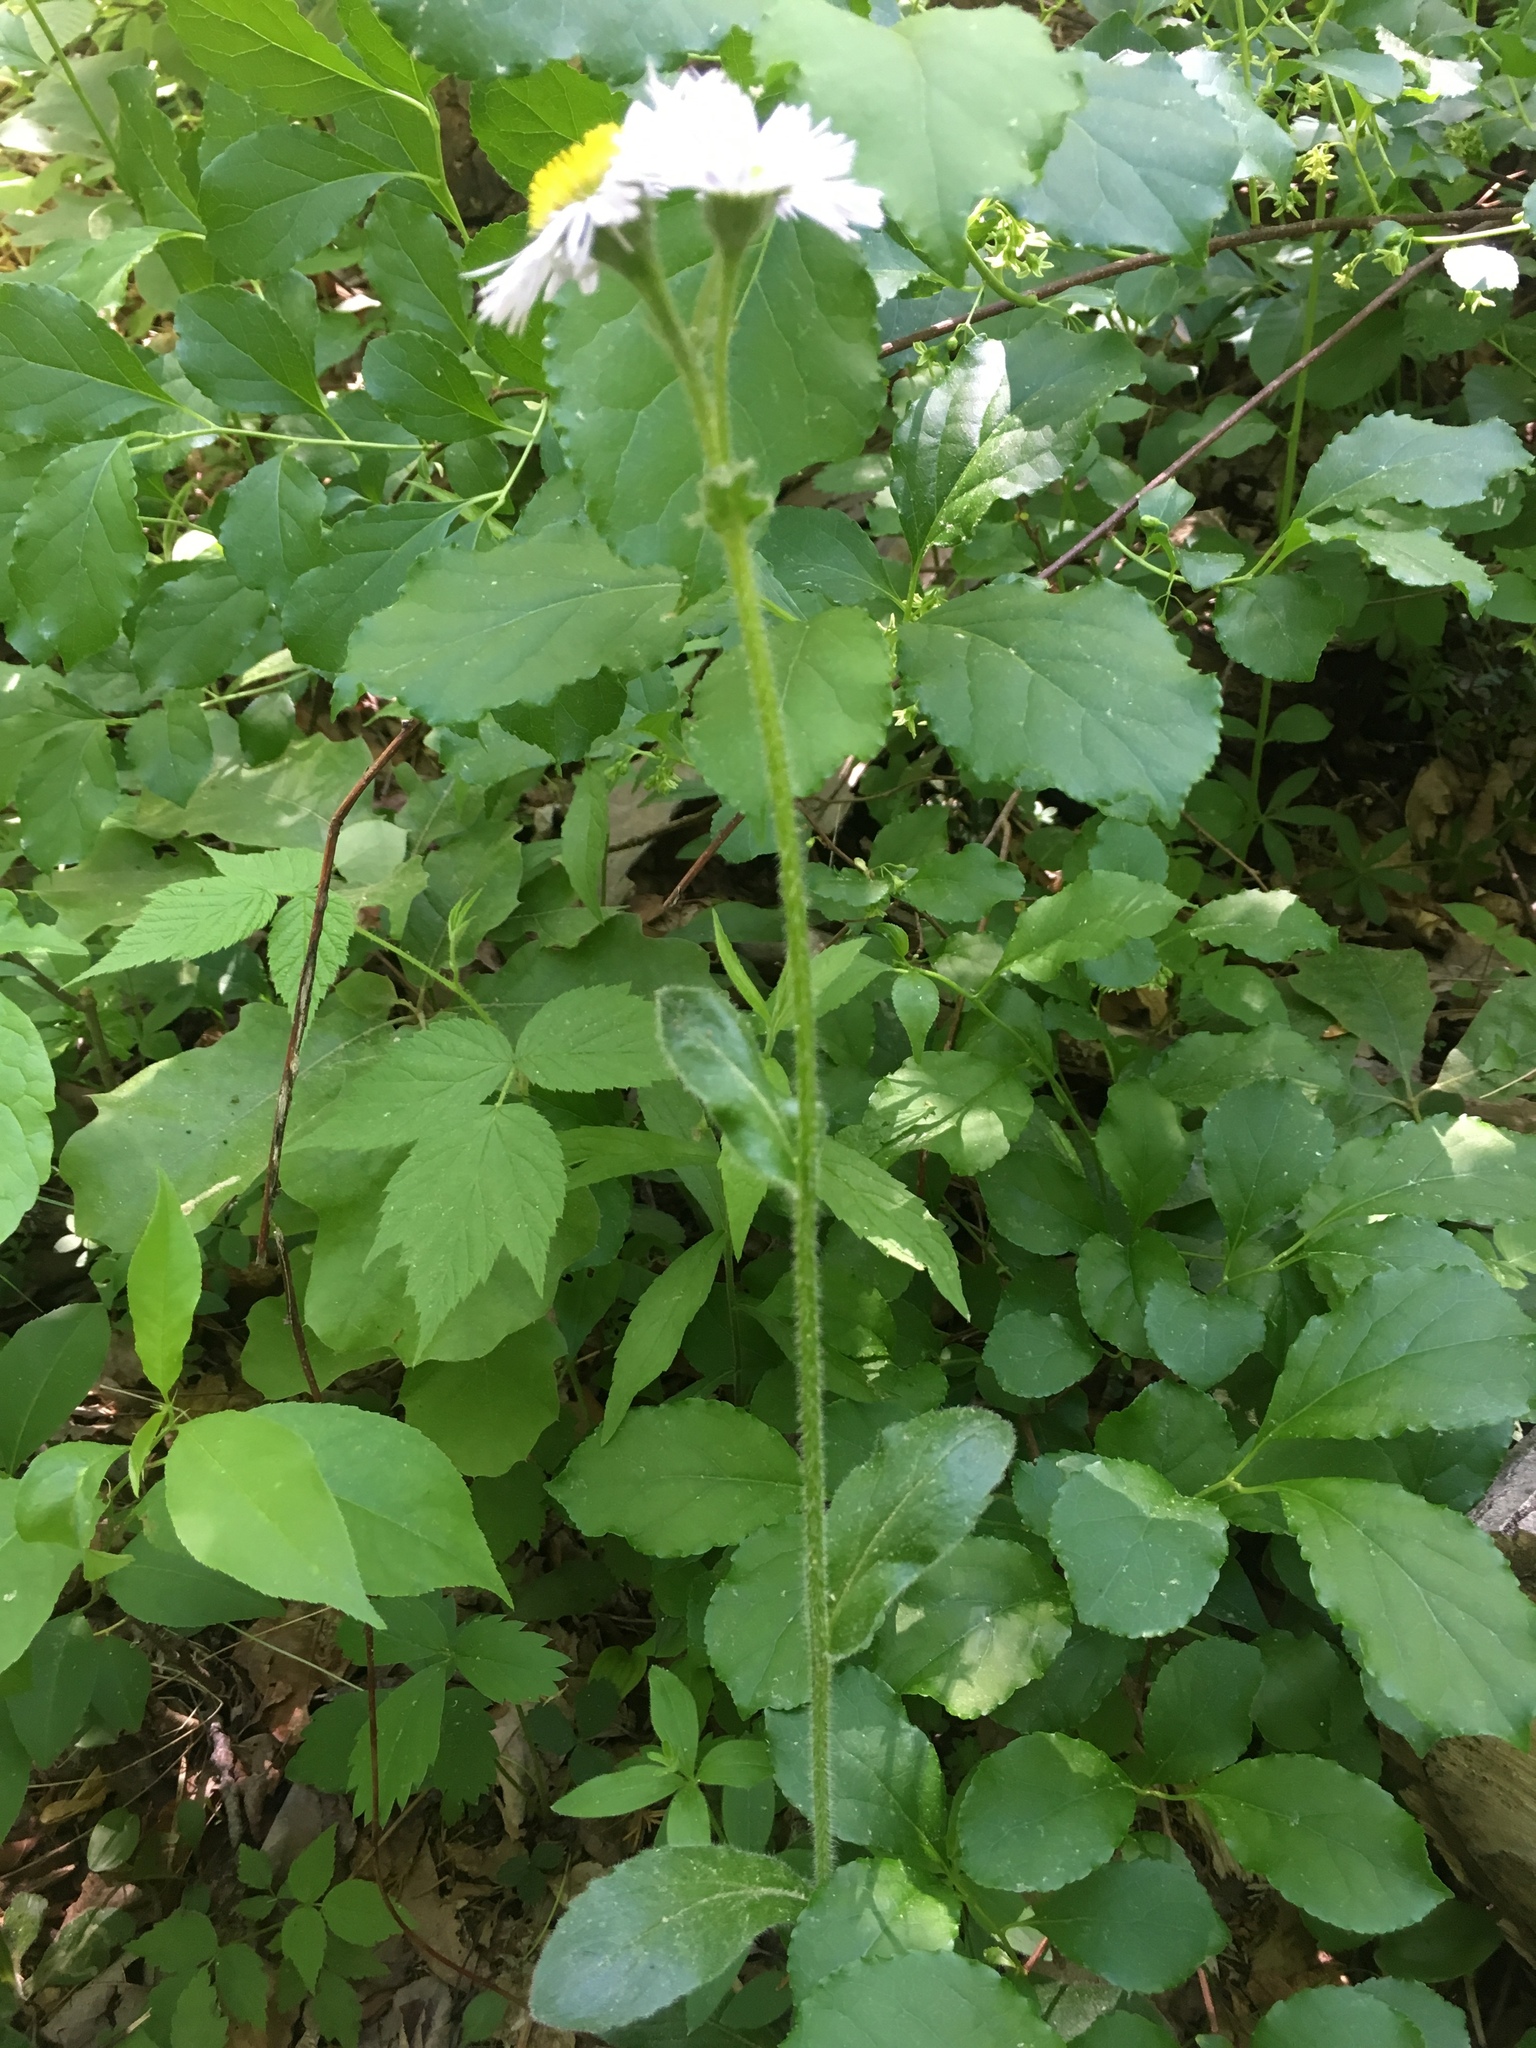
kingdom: Plantae
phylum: Tracheophyta
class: Magnoliopsida
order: Asterales
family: Asteraceae
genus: Erigeron
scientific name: Erigeron pulchellus
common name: Hairy fleabane
